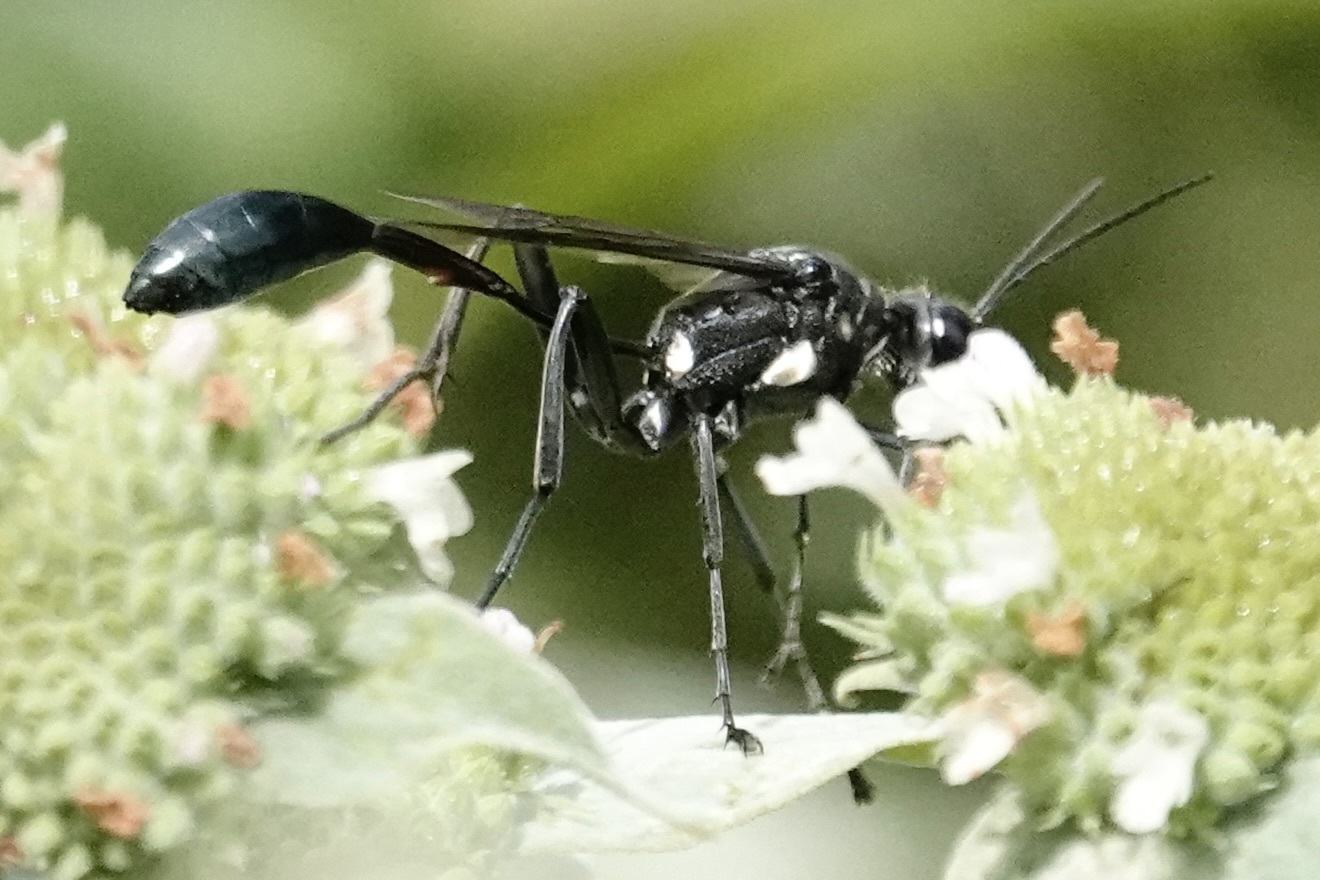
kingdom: Animalia
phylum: Arthropoda
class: Insecta
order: Hymenoptera
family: Sphecidae
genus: Eremnophila
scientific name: Eremnophila aureonotata
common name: Gold-marked thread-waisted wasp
